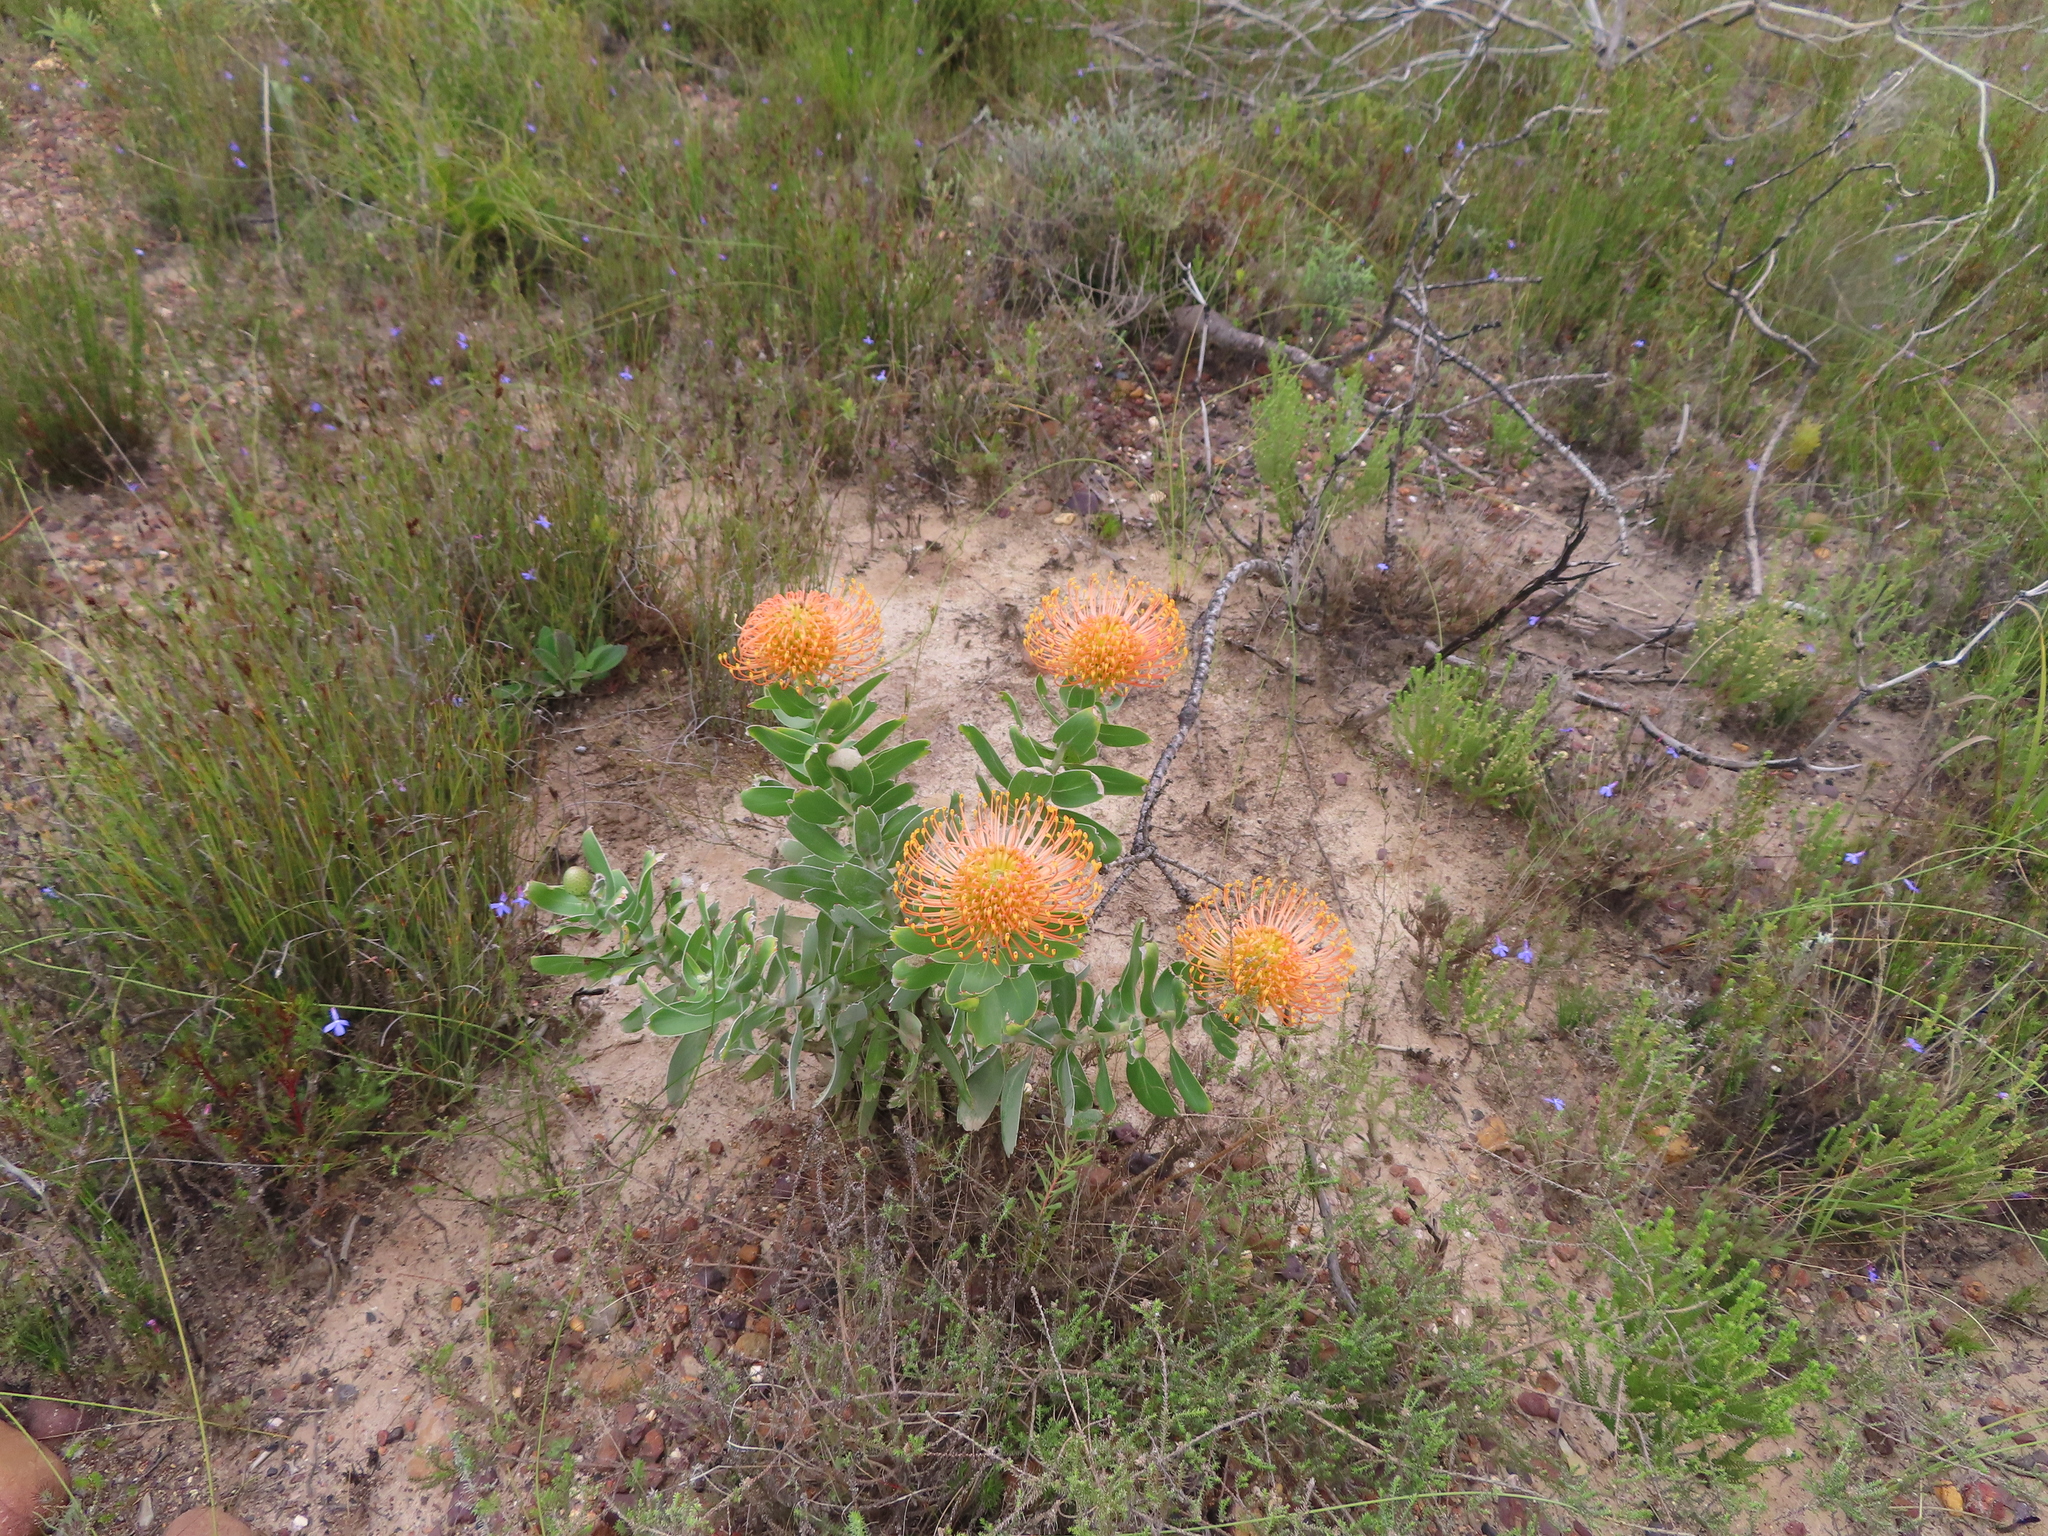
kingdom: Plantae
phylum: Tracheophyta
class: Magnoliopsida
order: Proteales
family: Proteaceae
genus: Leucospermum
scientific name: Leucospermum cordifolium
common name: Red pincushion-protea
